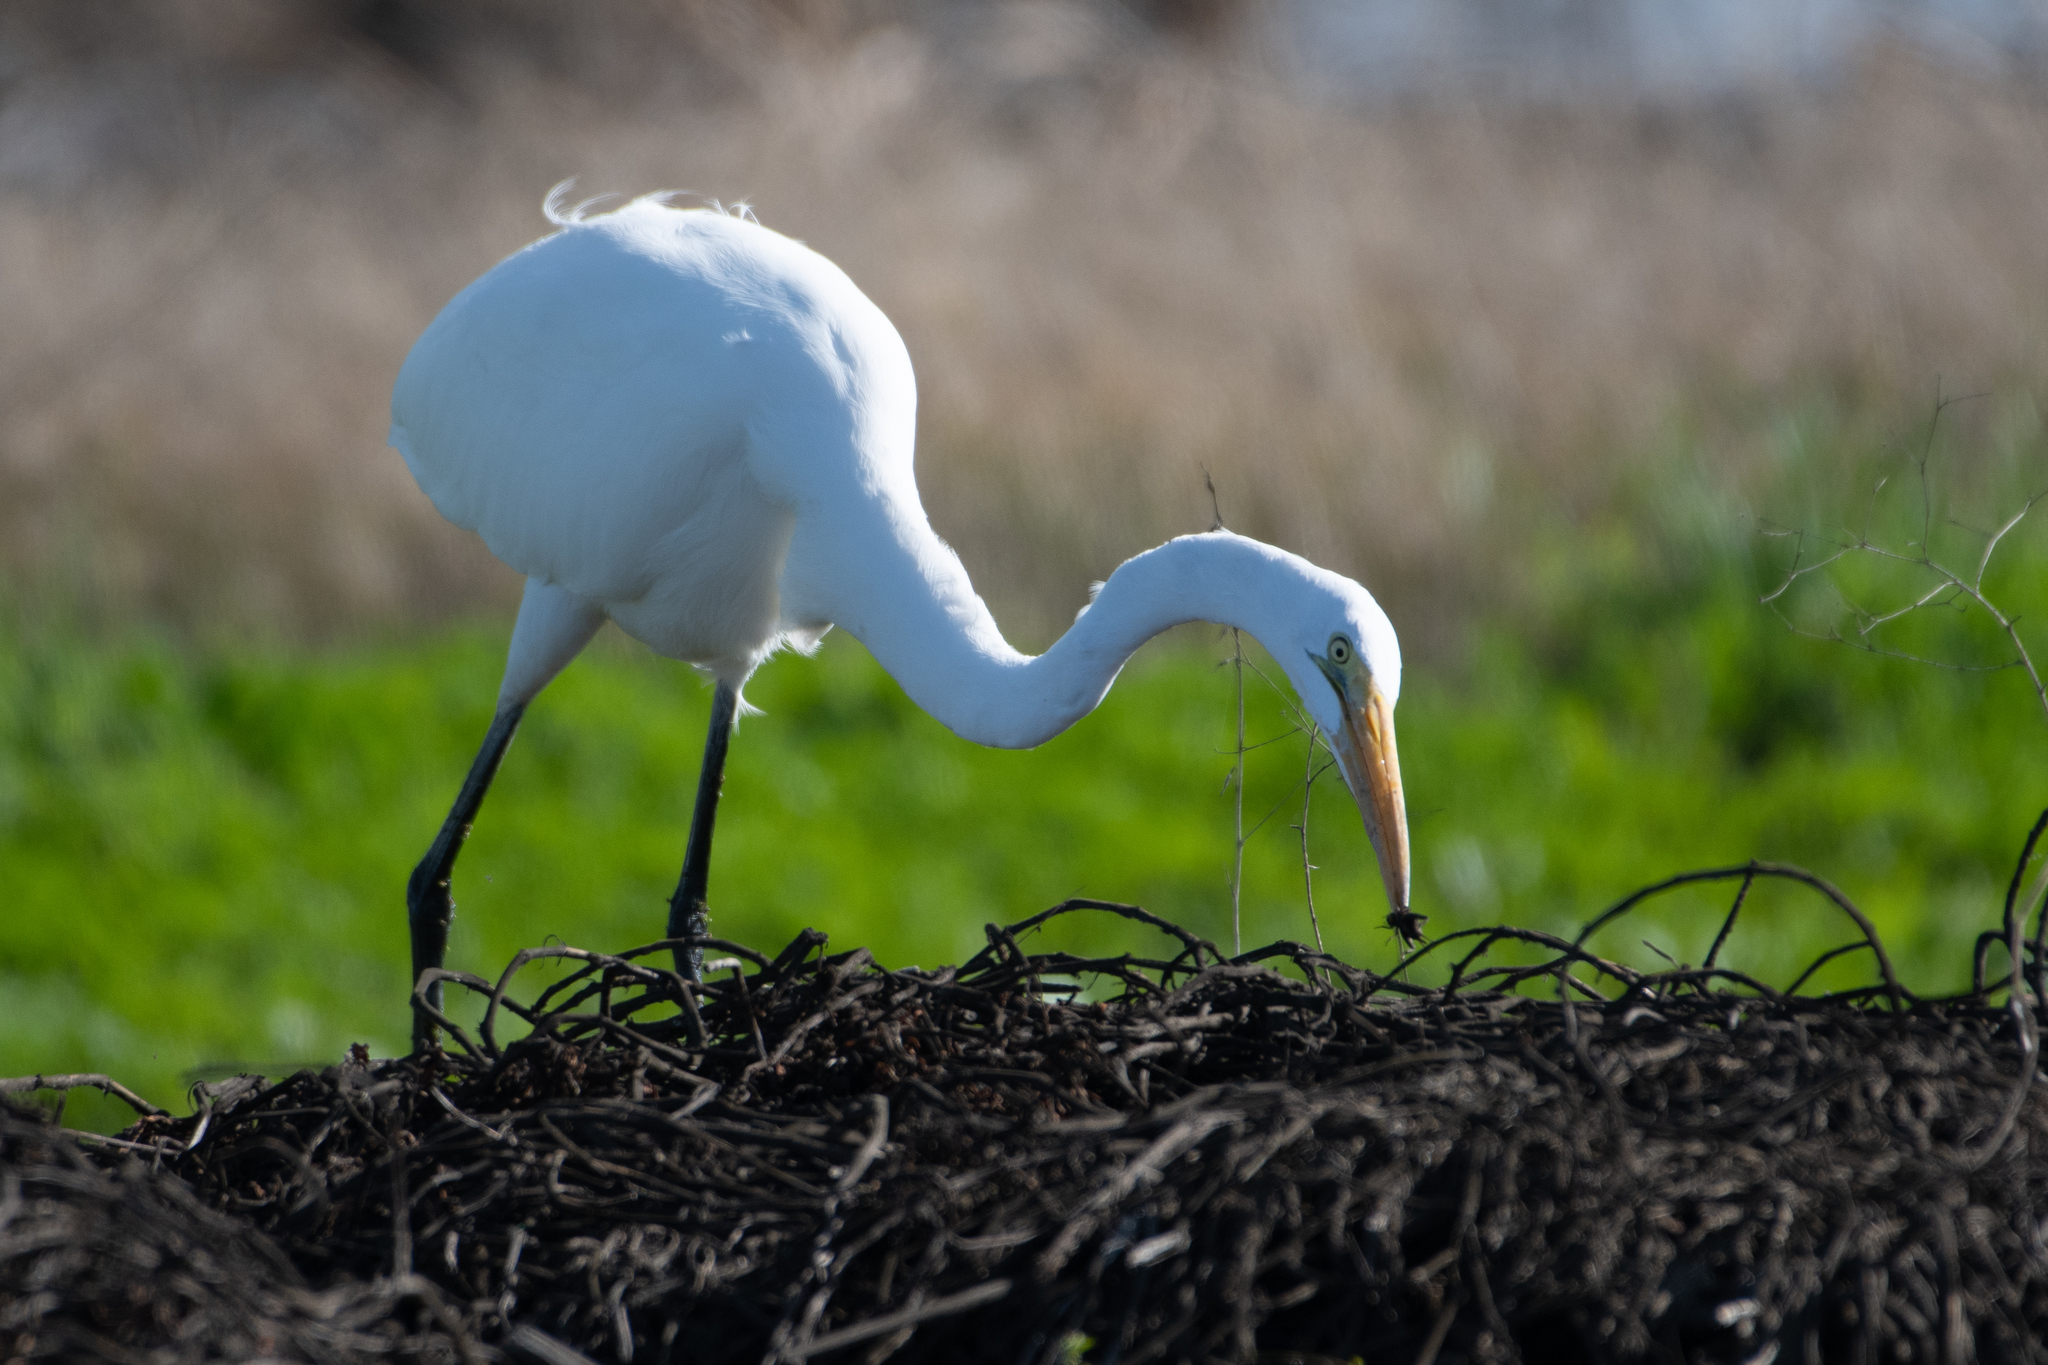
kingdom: Animalia
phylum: Chordata
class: Aves
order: Pelecaniformes
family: Ardeidae
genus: Ardea
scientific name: Ardea alba
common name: Great egret
